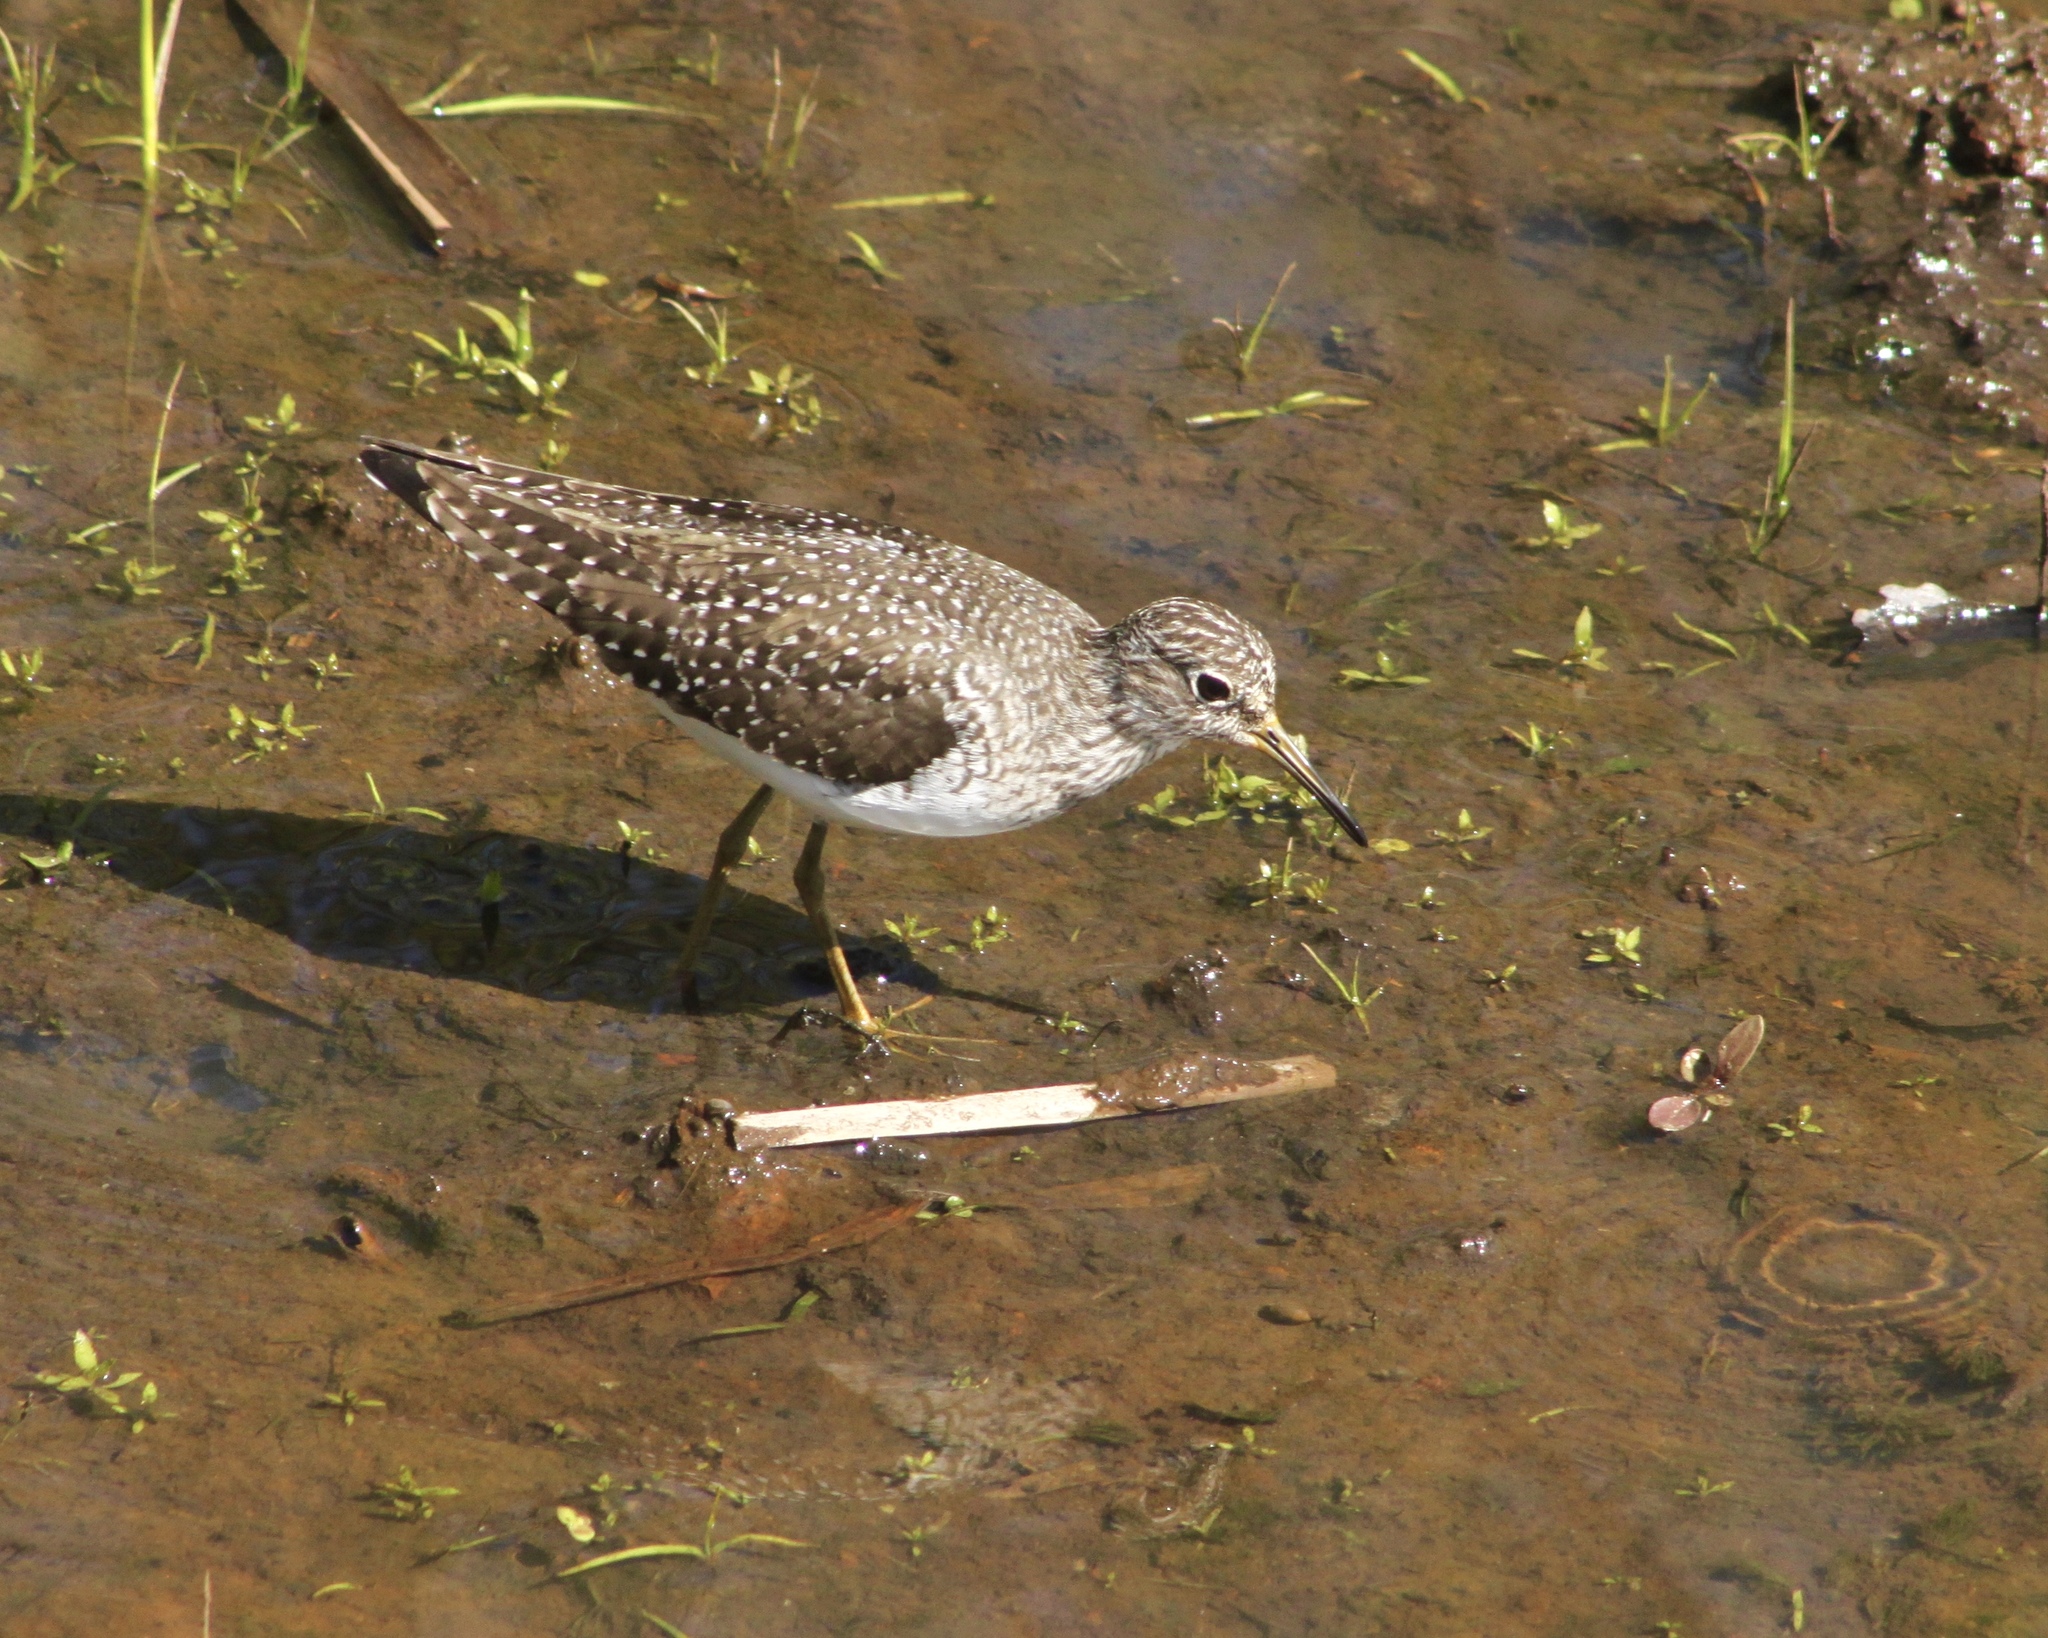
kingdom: Animalia
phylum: Chordata
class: Aves
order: Charadriiformes
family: Scolopacidae
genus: Tringa
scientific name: Tringa solitaria
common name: Solitary sandpiper
